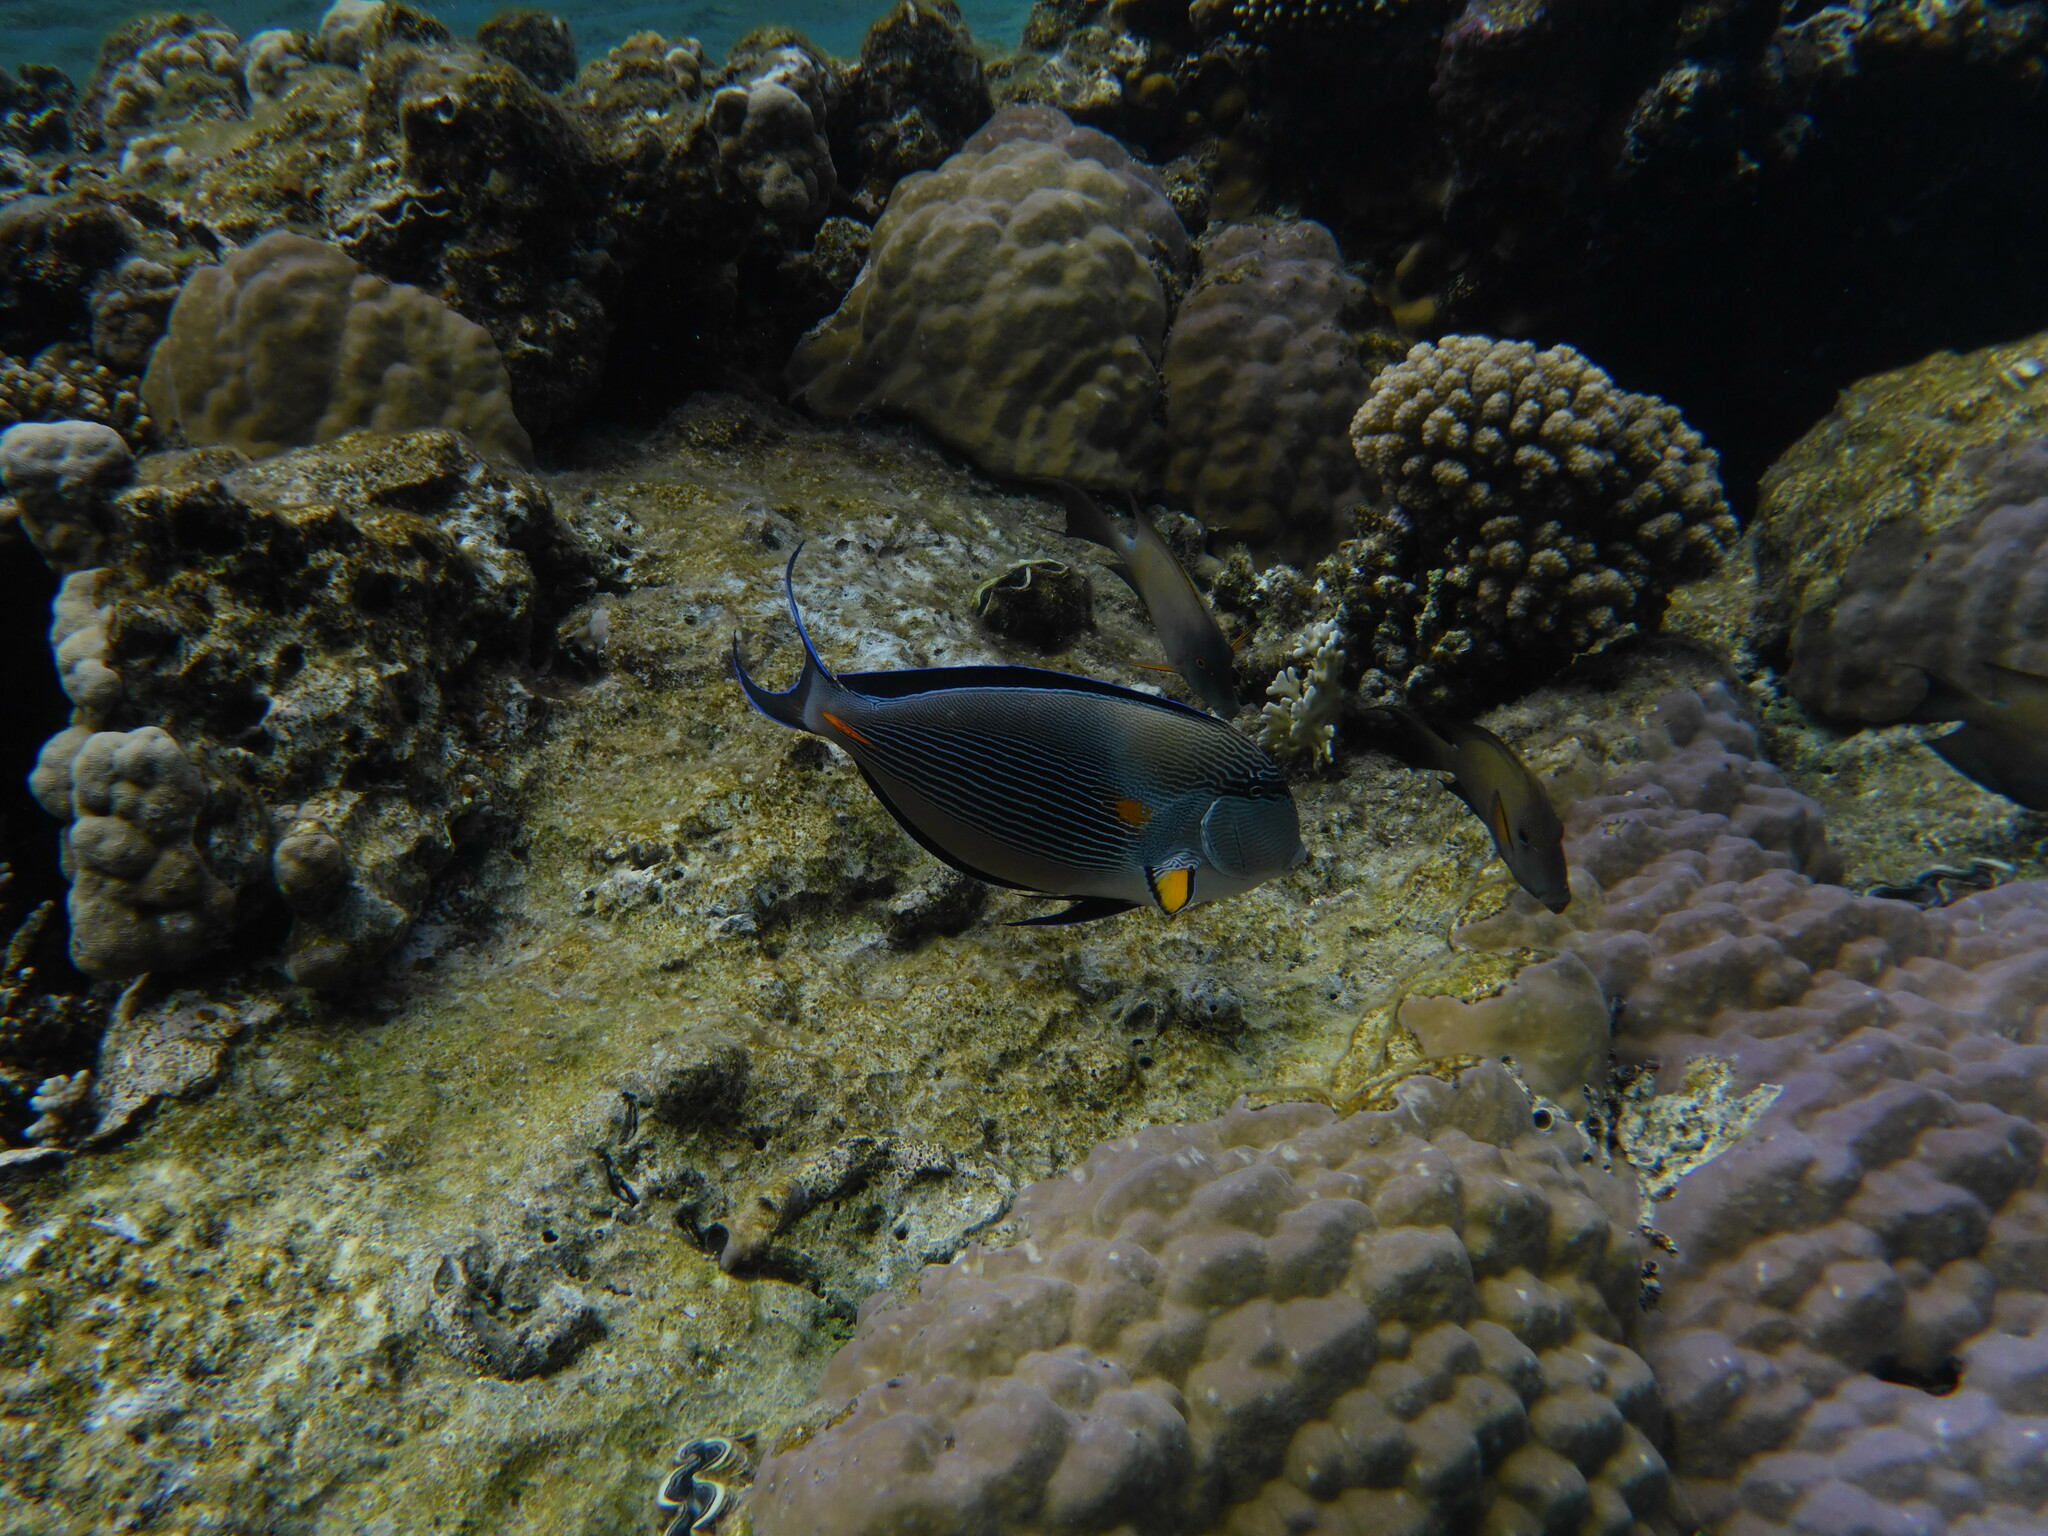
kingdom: Animalia
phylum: Chordata
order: Perciformes
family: Acanthuridae
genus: Acanthurus
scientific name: Acanthurus sohal
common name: Red sea surgeonfish
